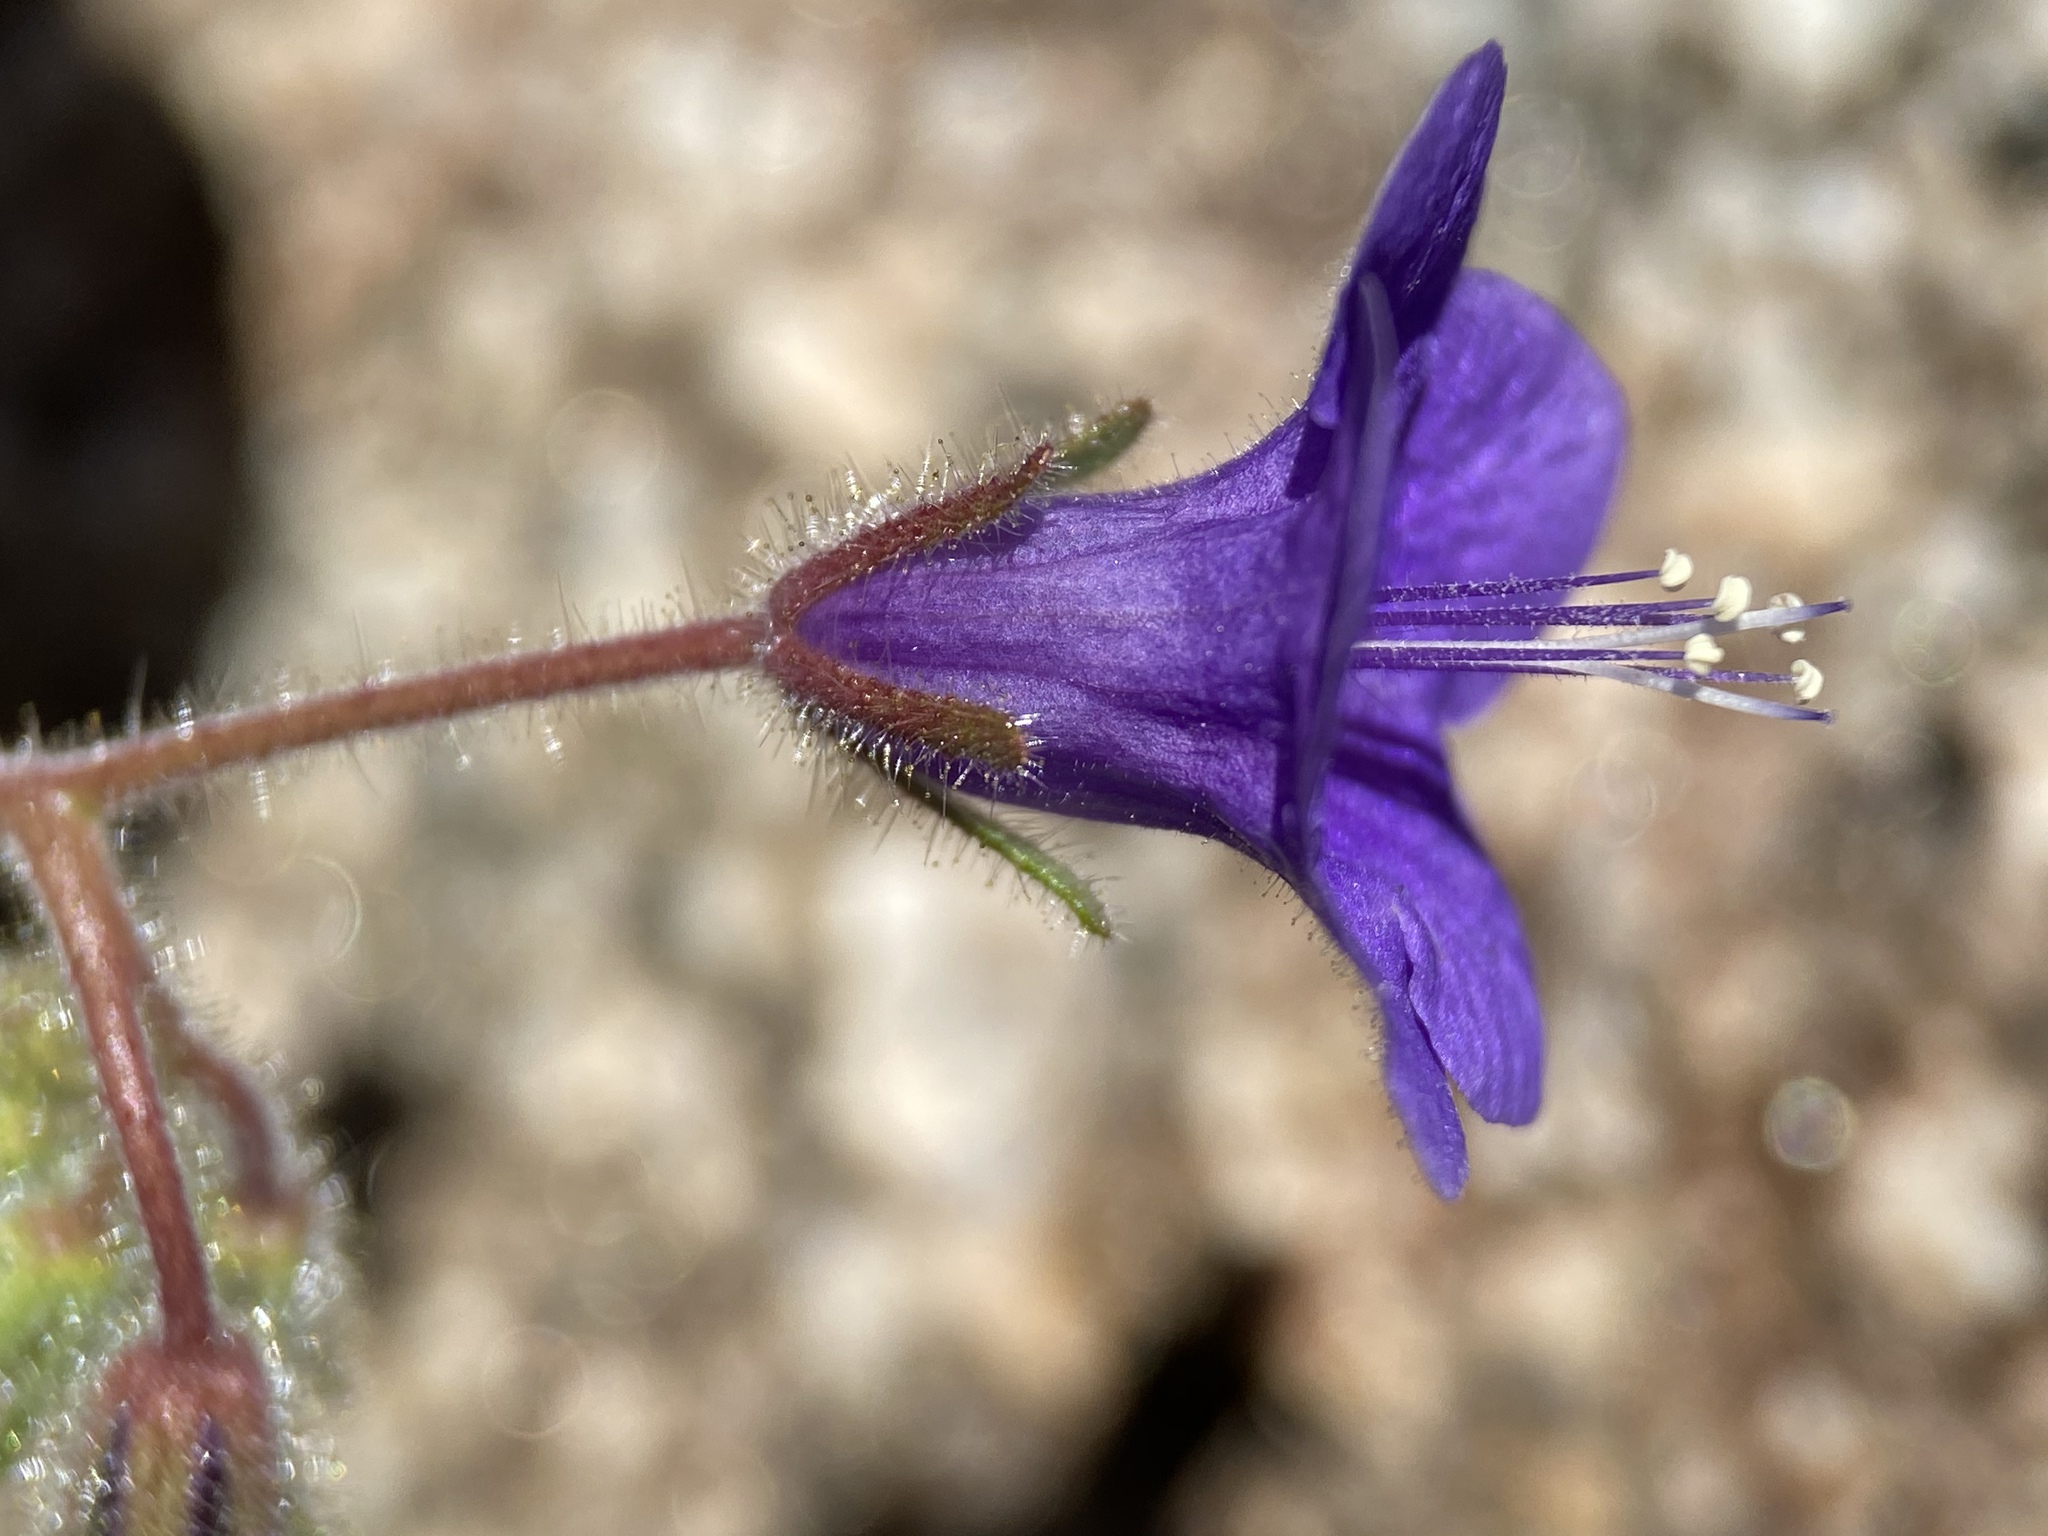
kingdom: Plantae
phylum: Tracheophyta
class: Magnoliopsida
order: Boraginales
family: Hydrophyllaceae
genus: Phacelia
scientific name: Phacelia minor
